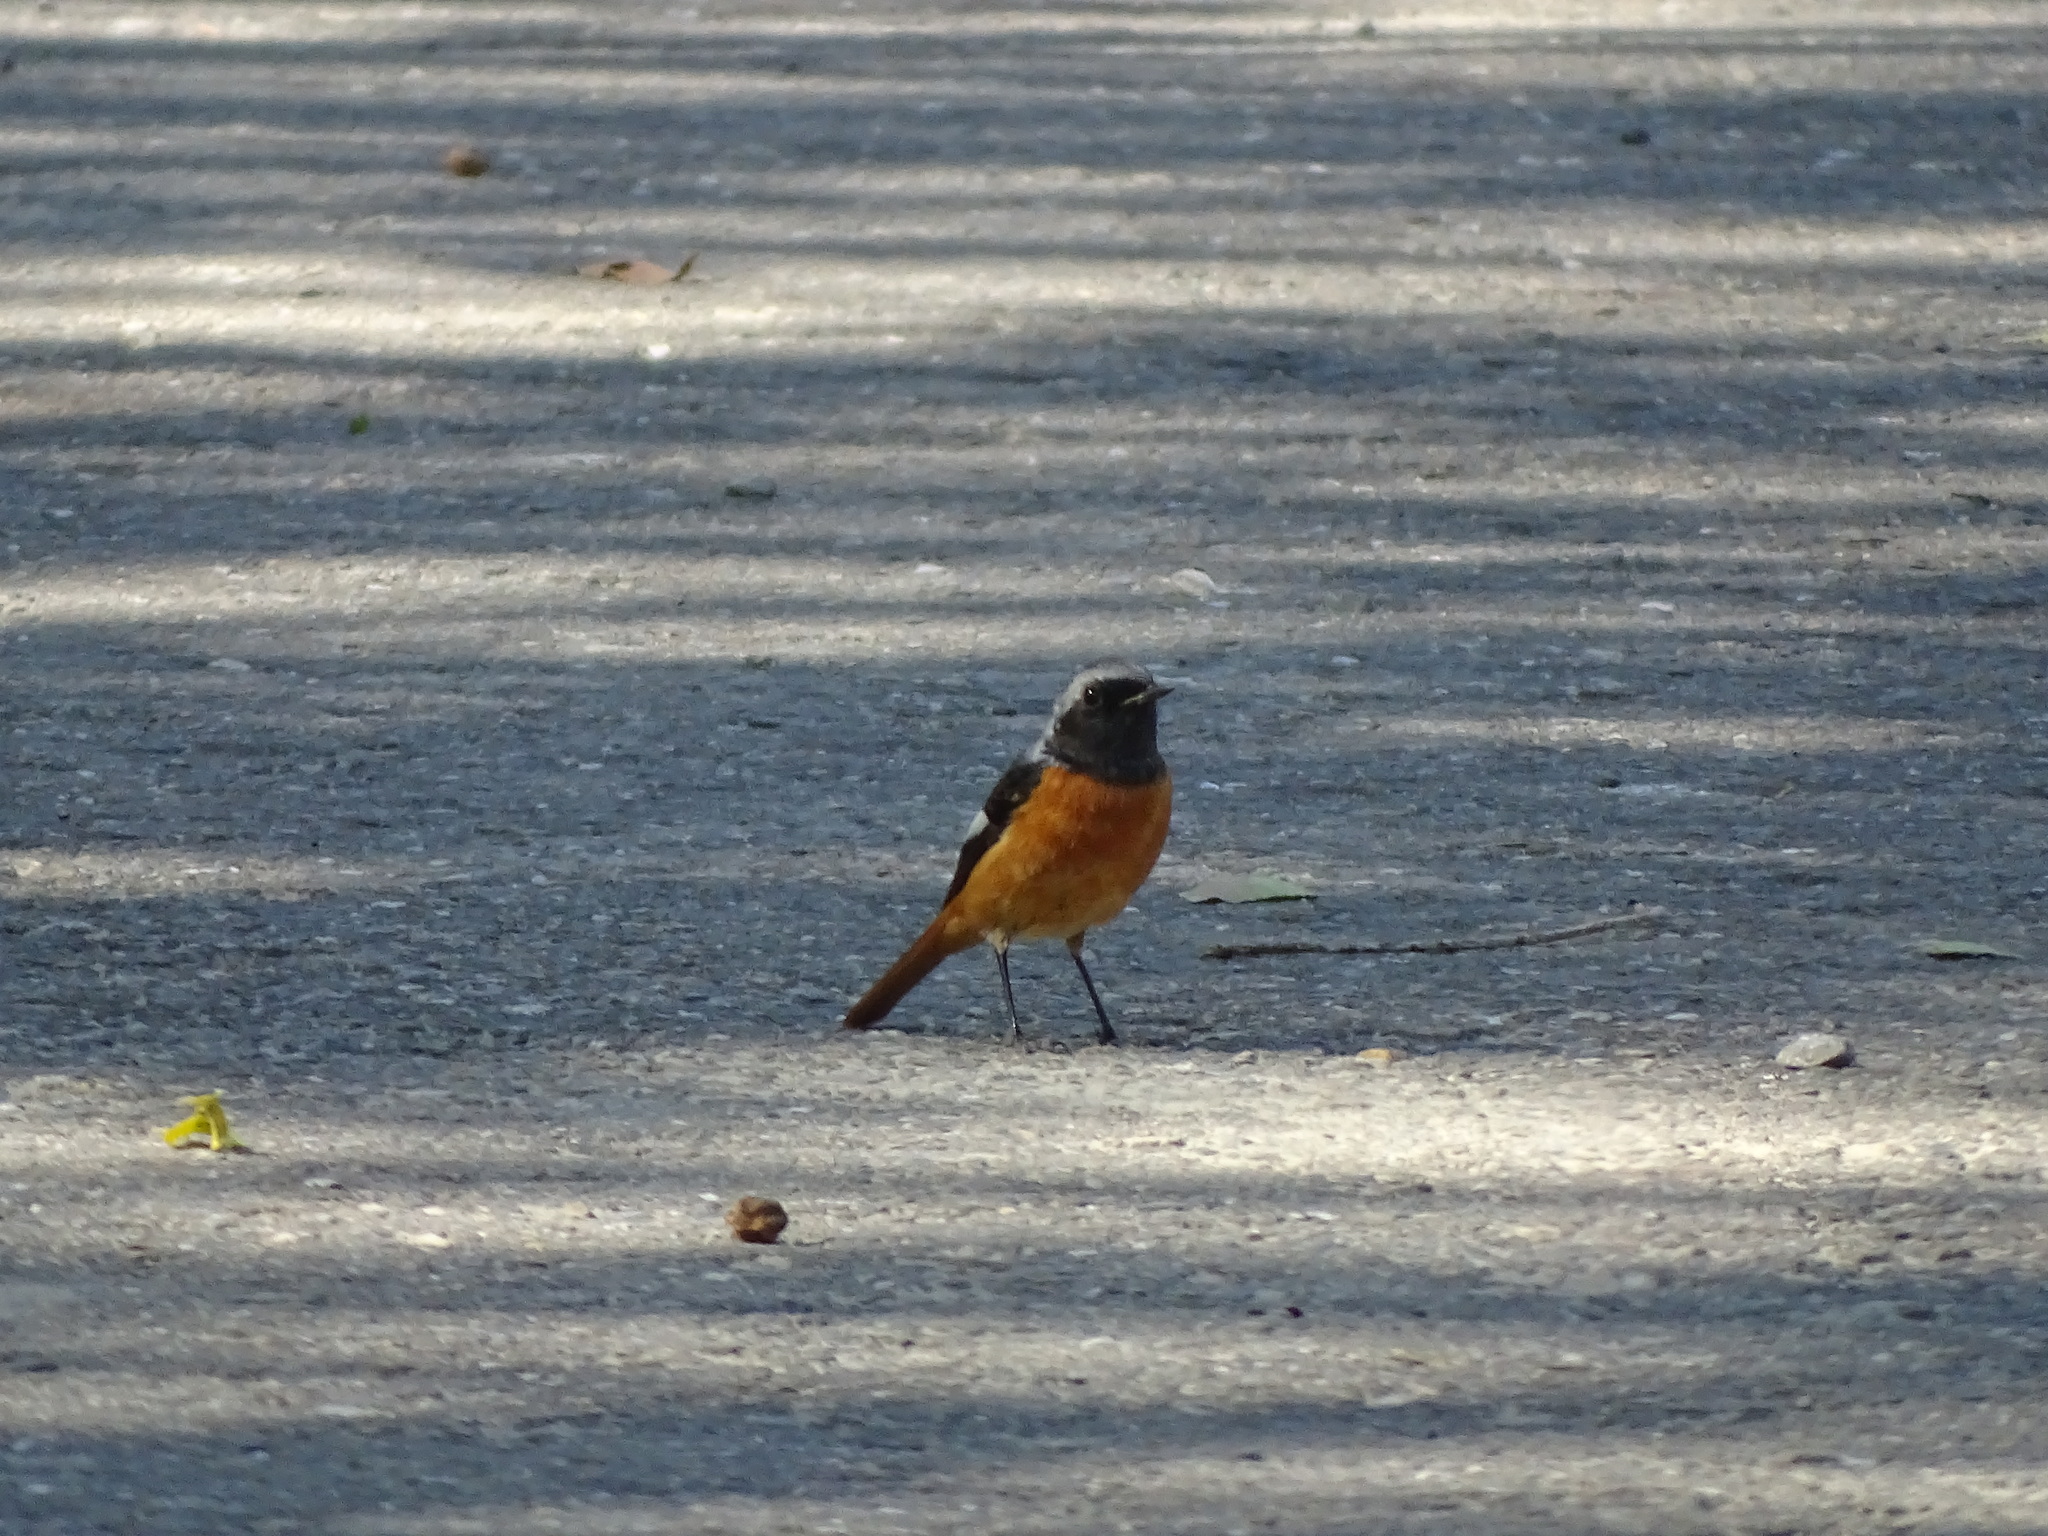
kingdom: Animalia
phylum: Chordata
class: Aves
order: Passeriformes
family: Muscicapidae
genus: Phoenicurus
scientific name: Phoenicurus auroreus
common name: Daurian redstart
